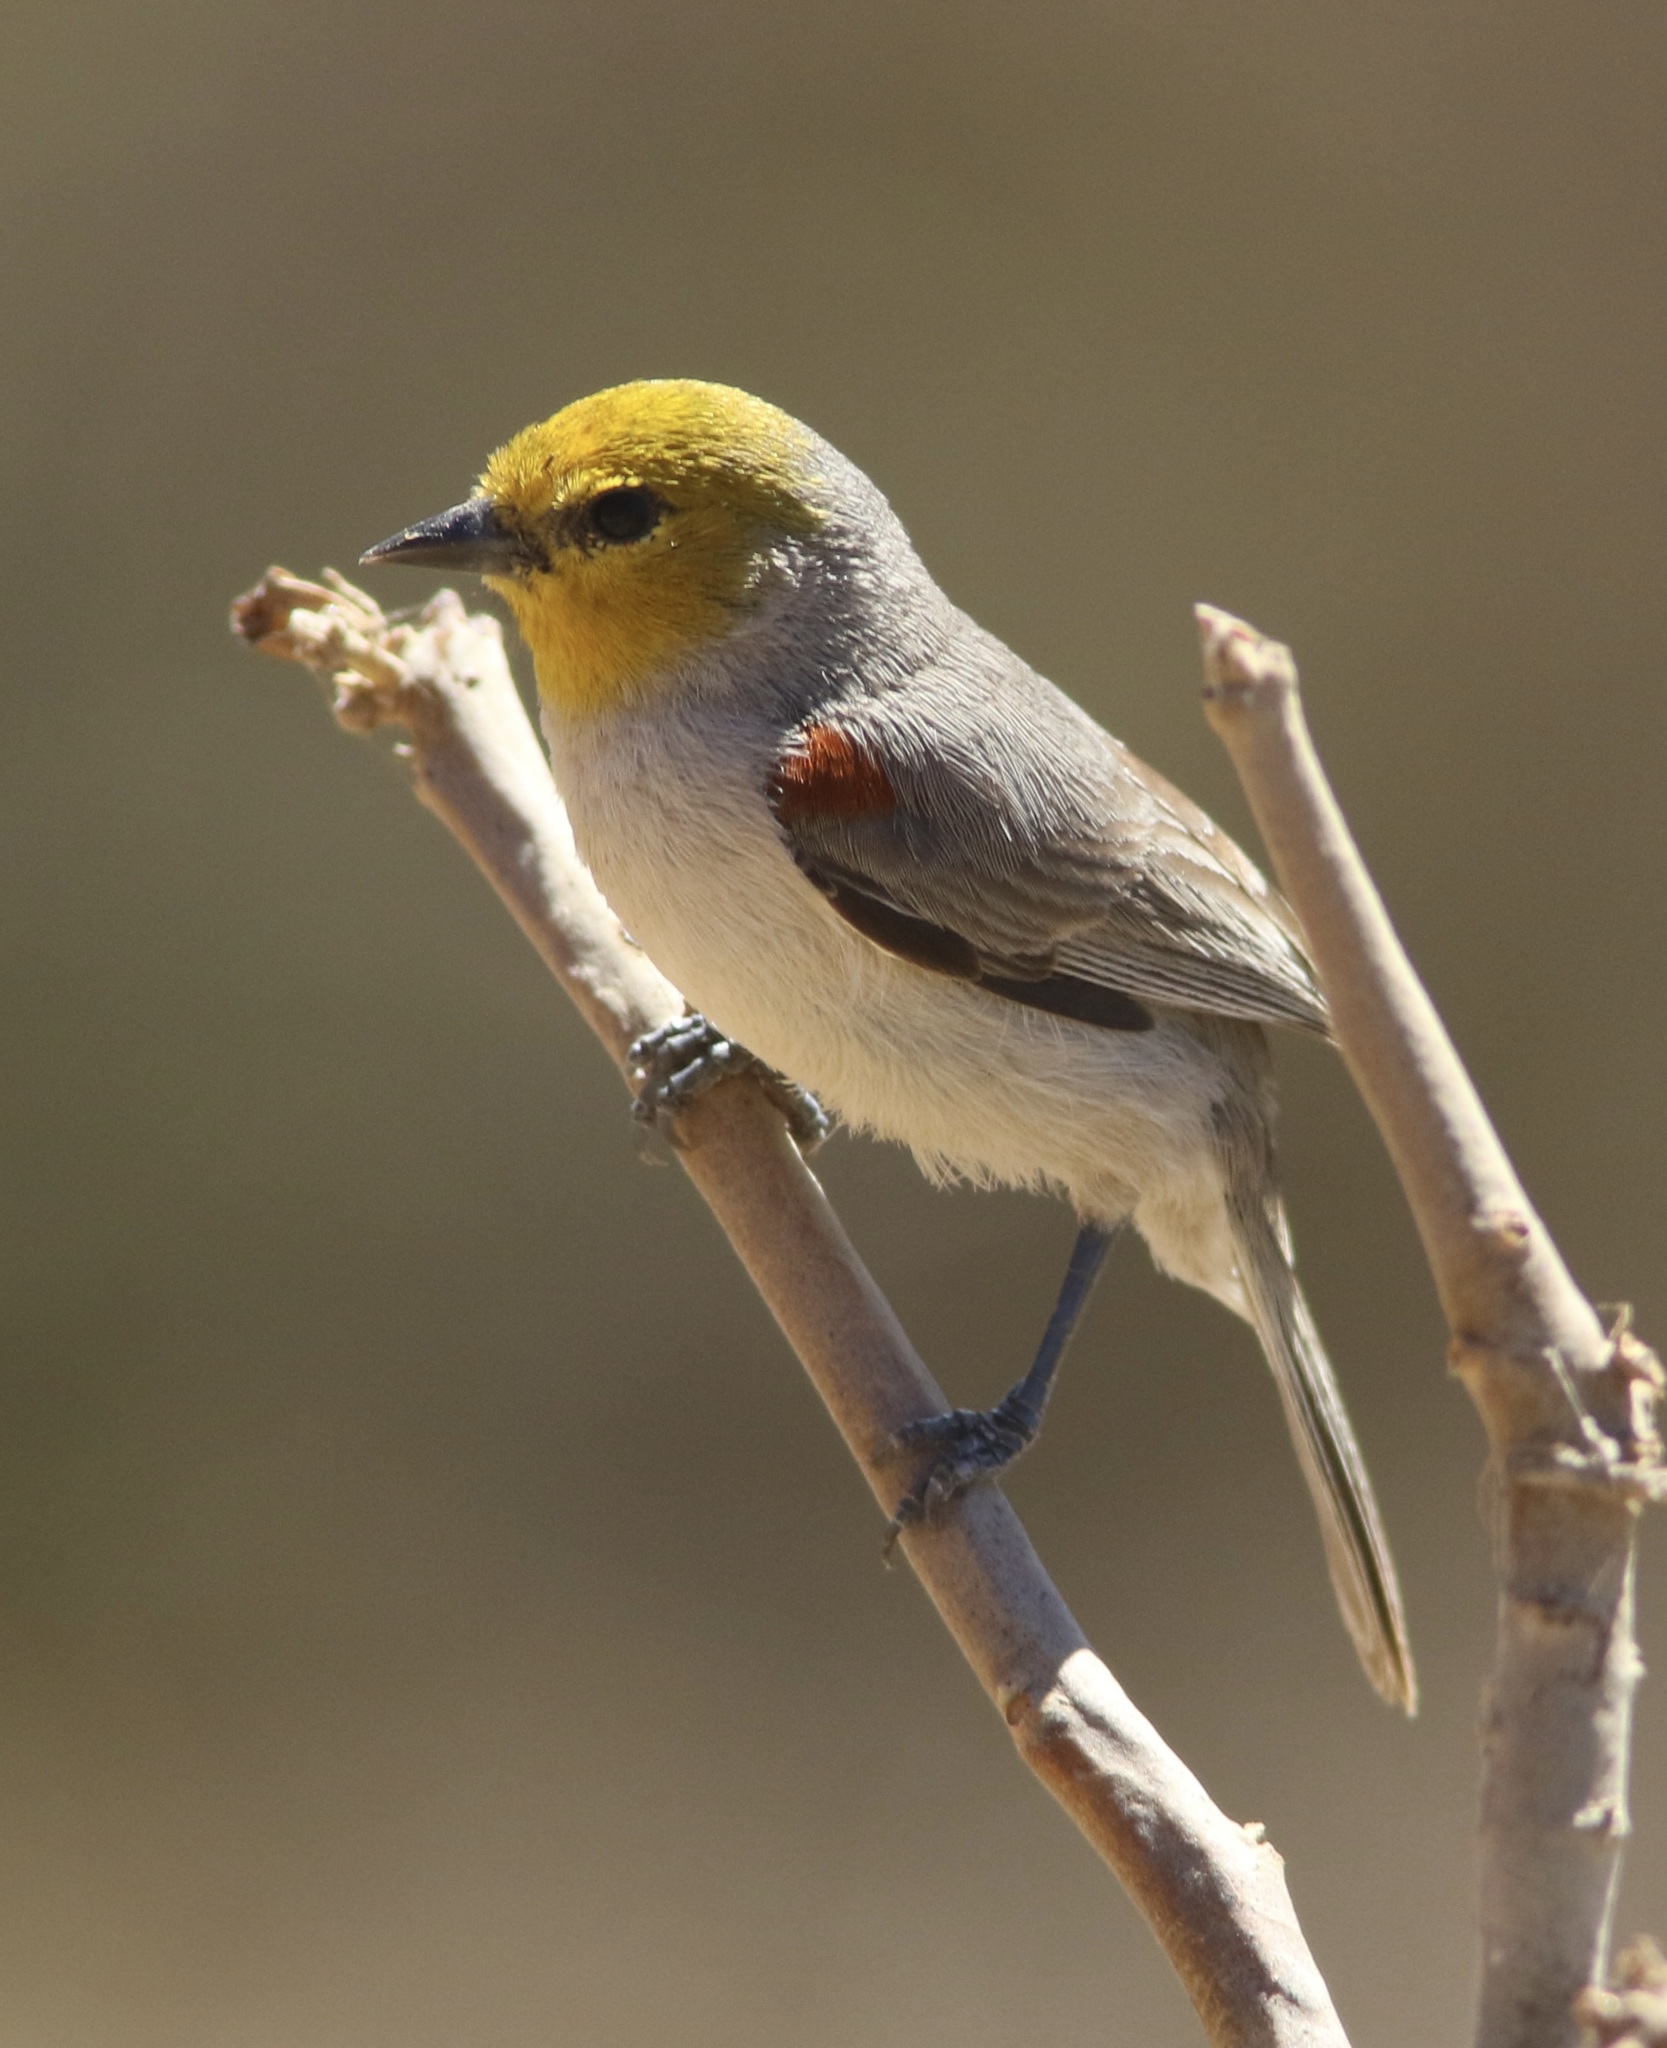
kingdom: Animalia
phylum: Chordata
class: Aves
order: Passeriformes
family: Remizidae
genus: Auriparus
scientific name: Auriparus flaviceps
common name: Verdin
